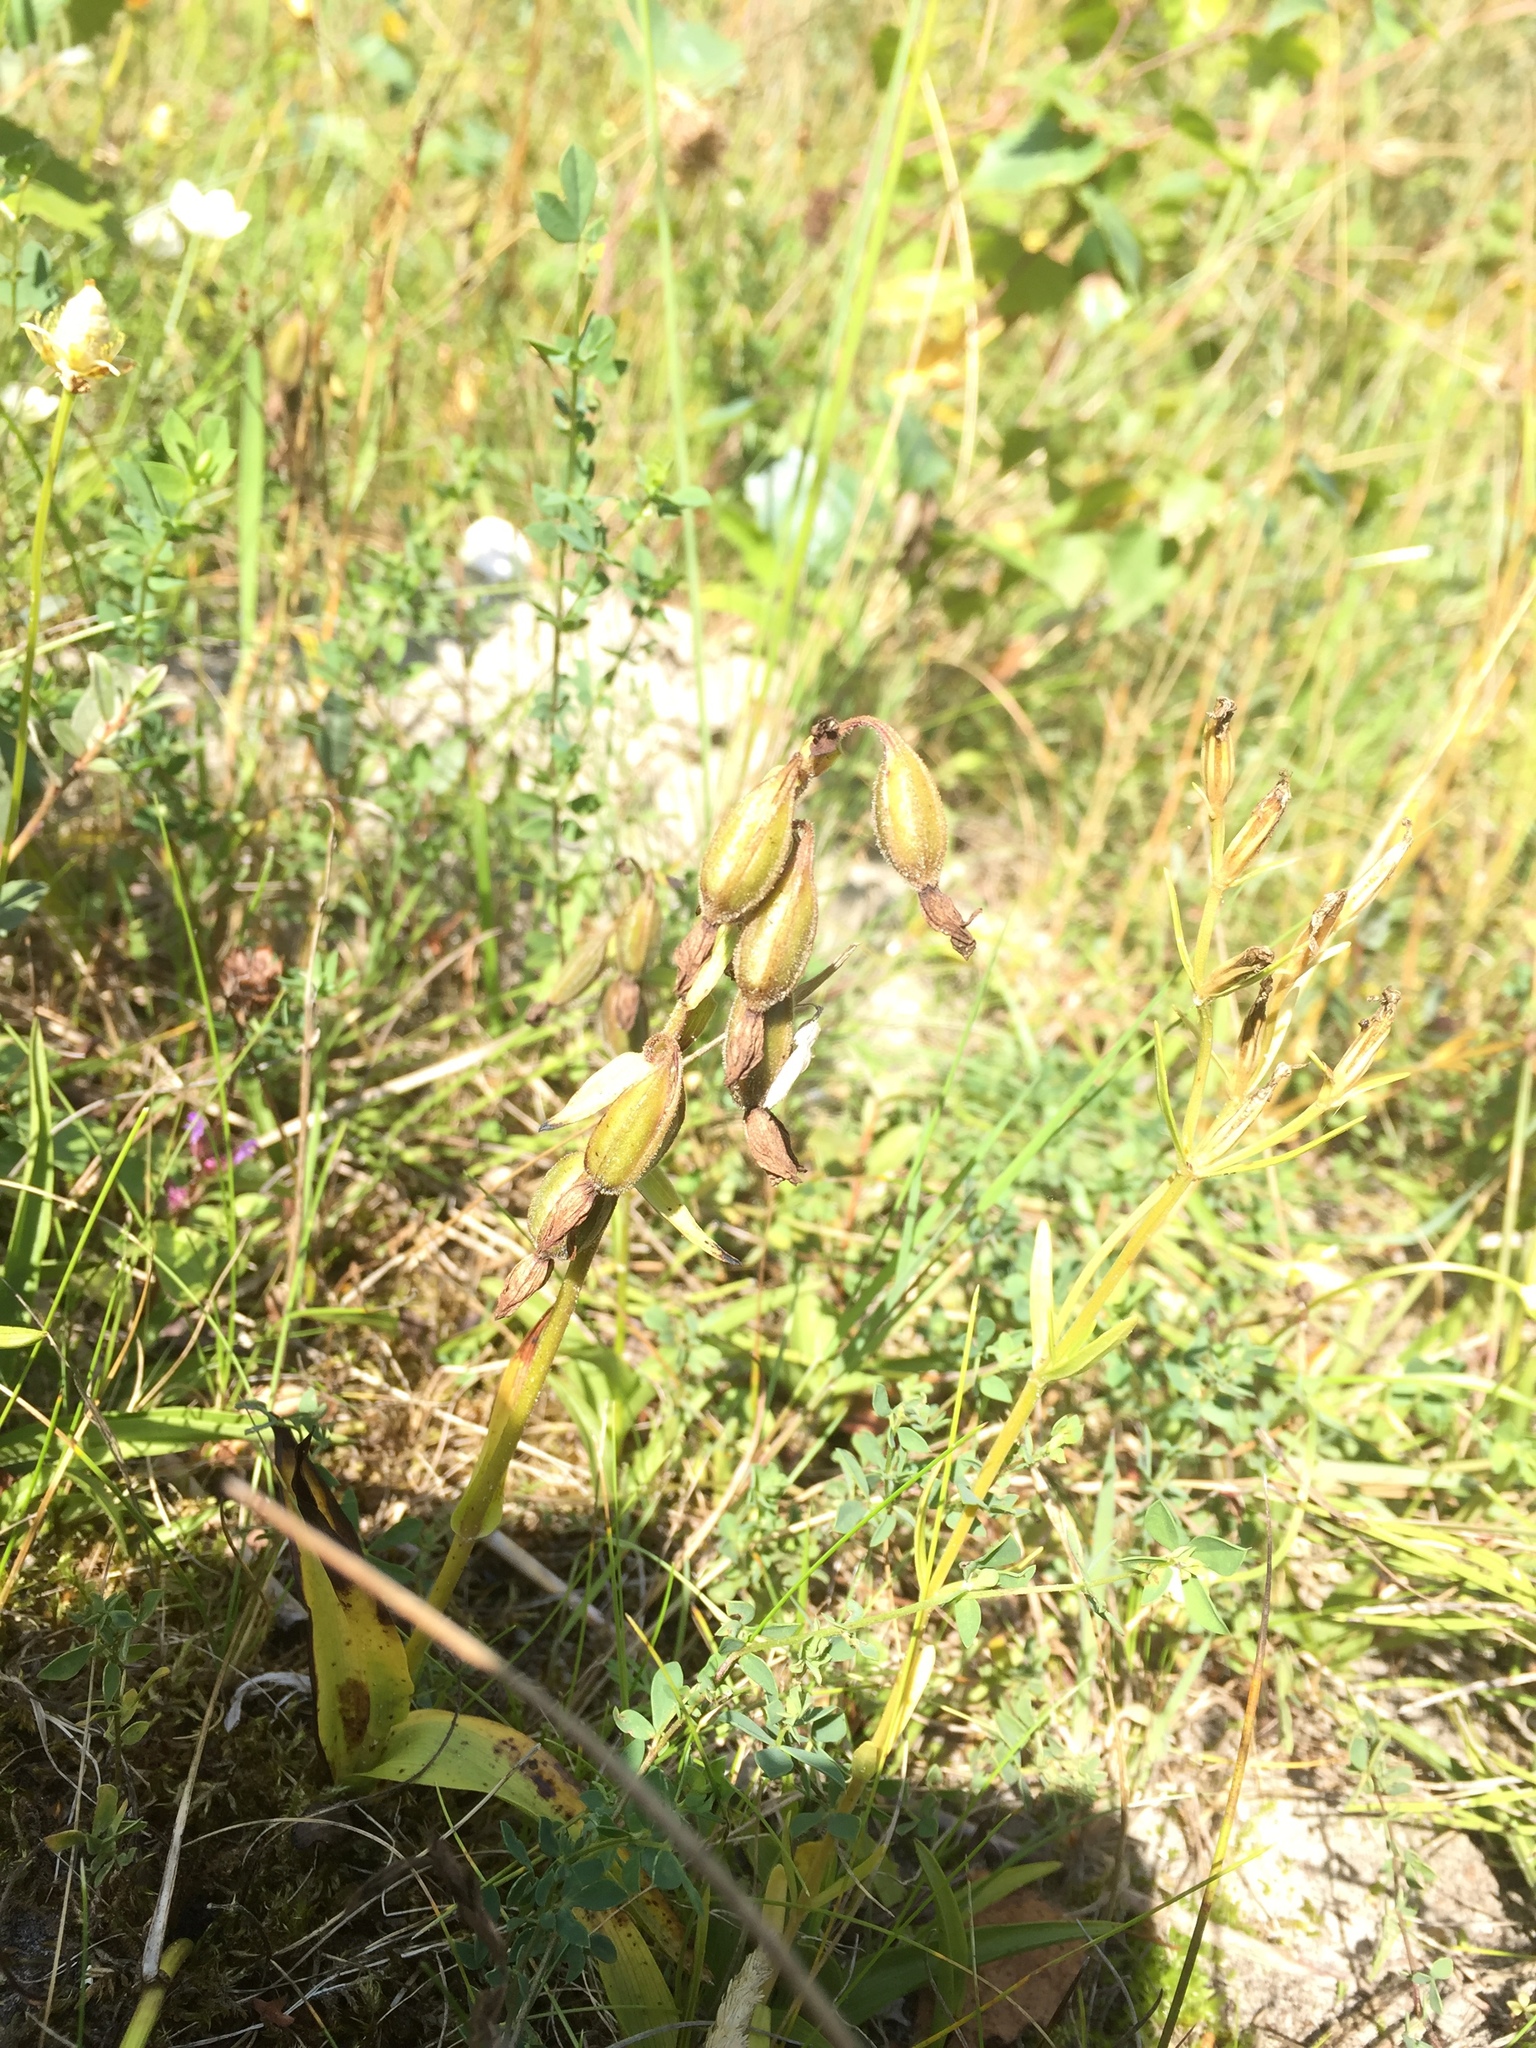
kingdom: Plantae
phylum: Tracheophyta
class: Liliopsida
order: Asparagales
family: Orchidaceae
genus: Epipactis
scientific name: Epipactis palustris
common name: Marsh helleborine
